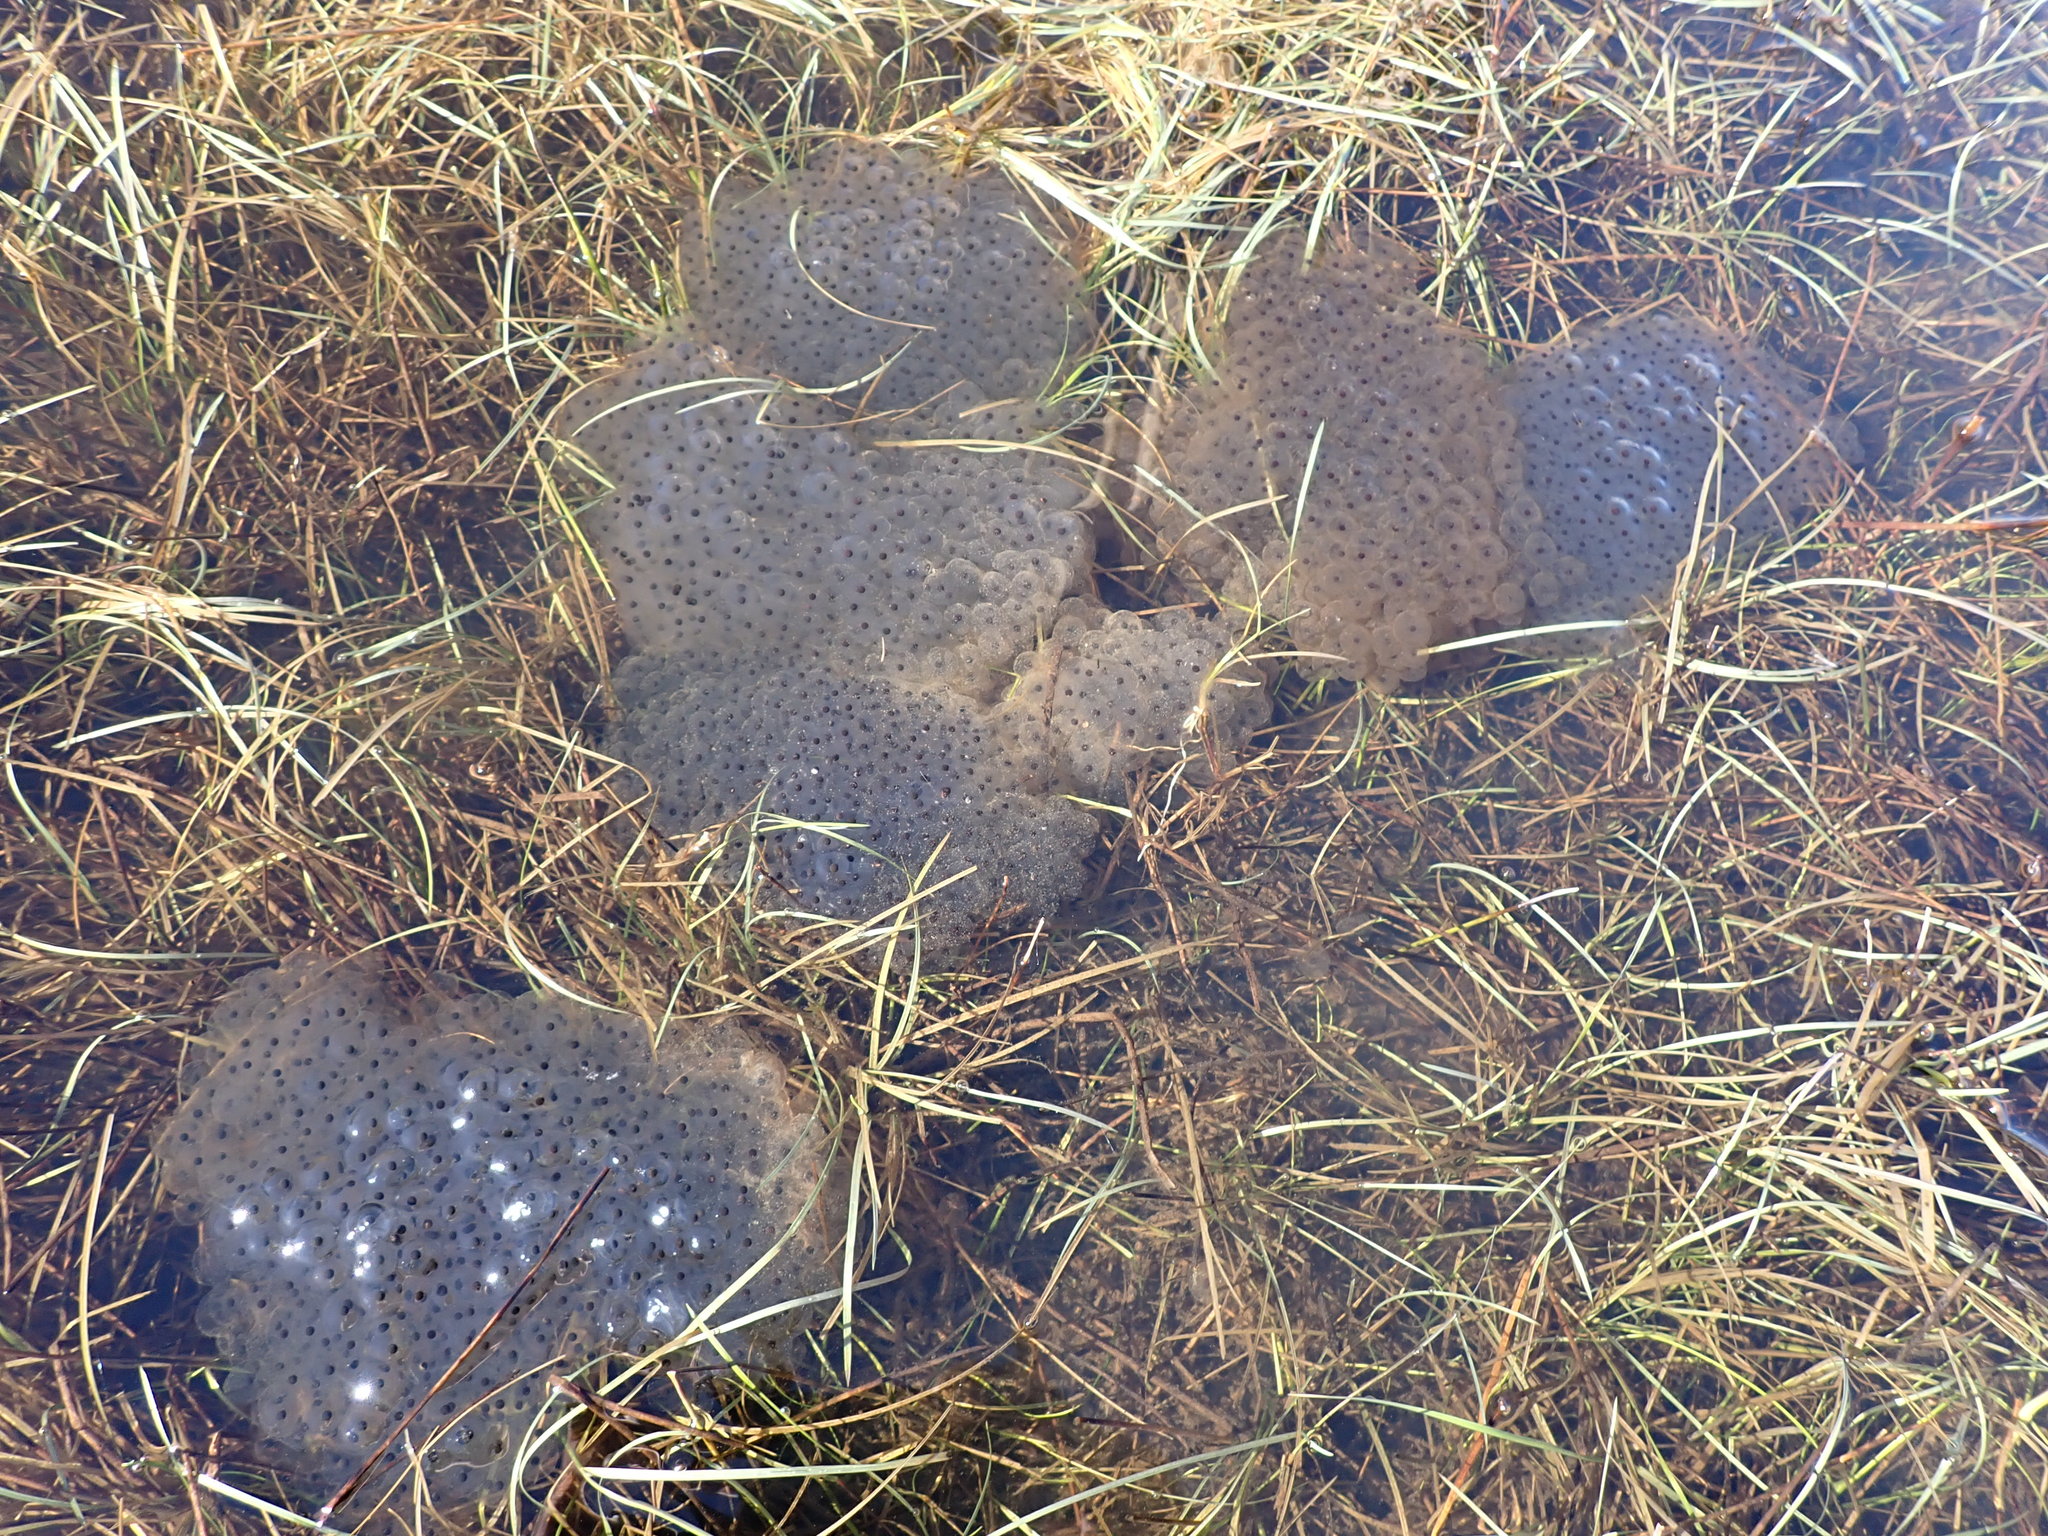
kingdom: Animalia
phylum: Chordata
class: Amphibia
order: Anura
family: Ranidae
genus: Rana
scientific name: Rana temporaria
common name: Common frog
